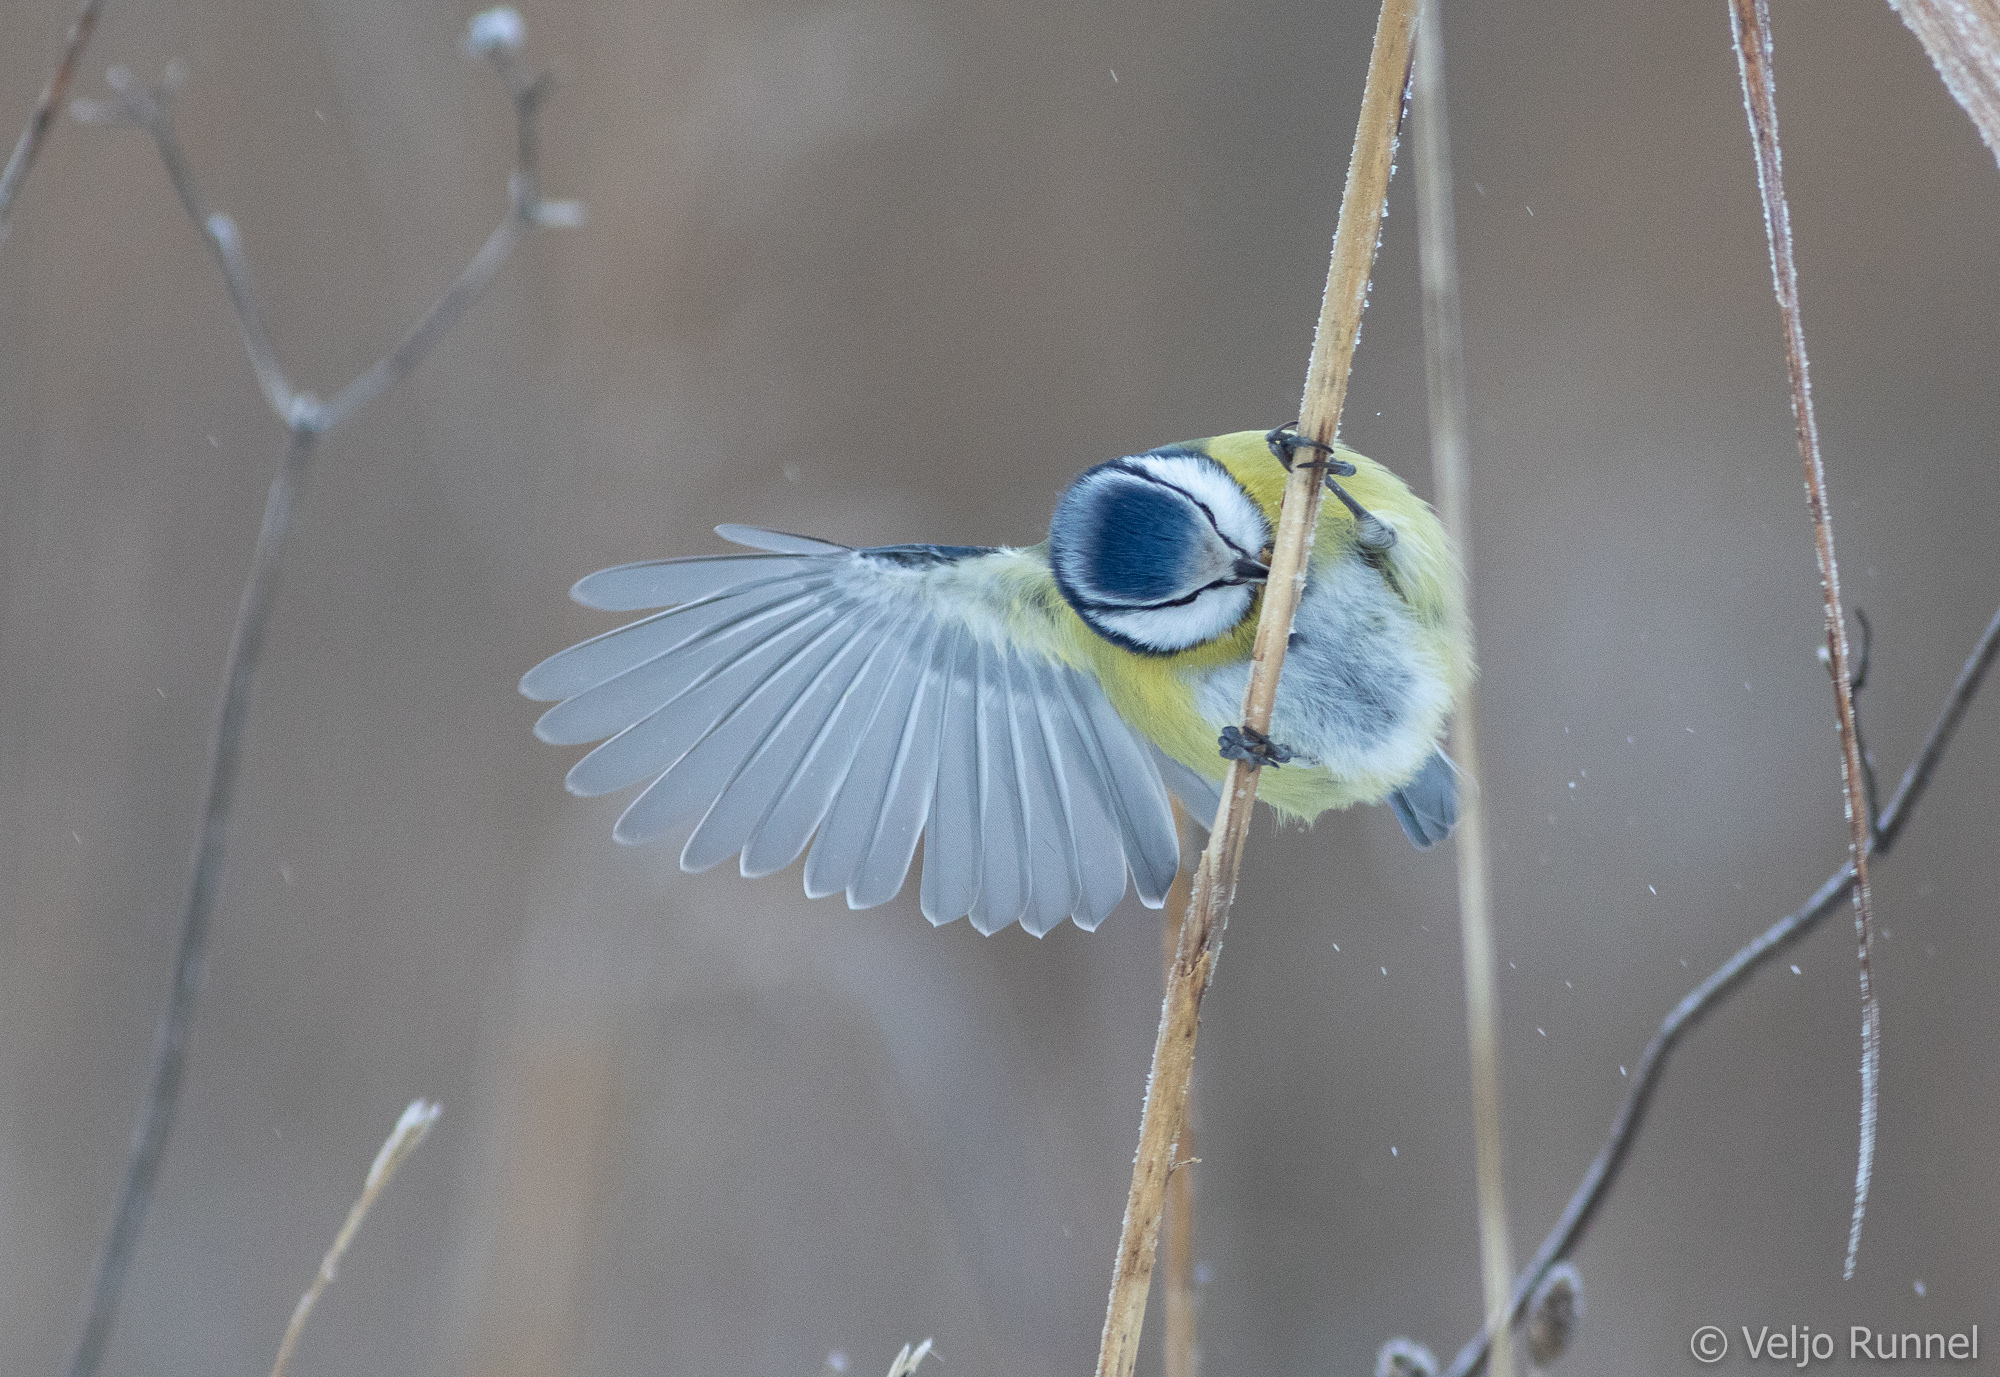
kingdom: Animalia
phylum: Chordata
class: Aves
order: Passeriformes
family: Paridae
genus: Cyanistes
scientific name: Cyanistes caeruleus
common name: Eurasian blue tit
